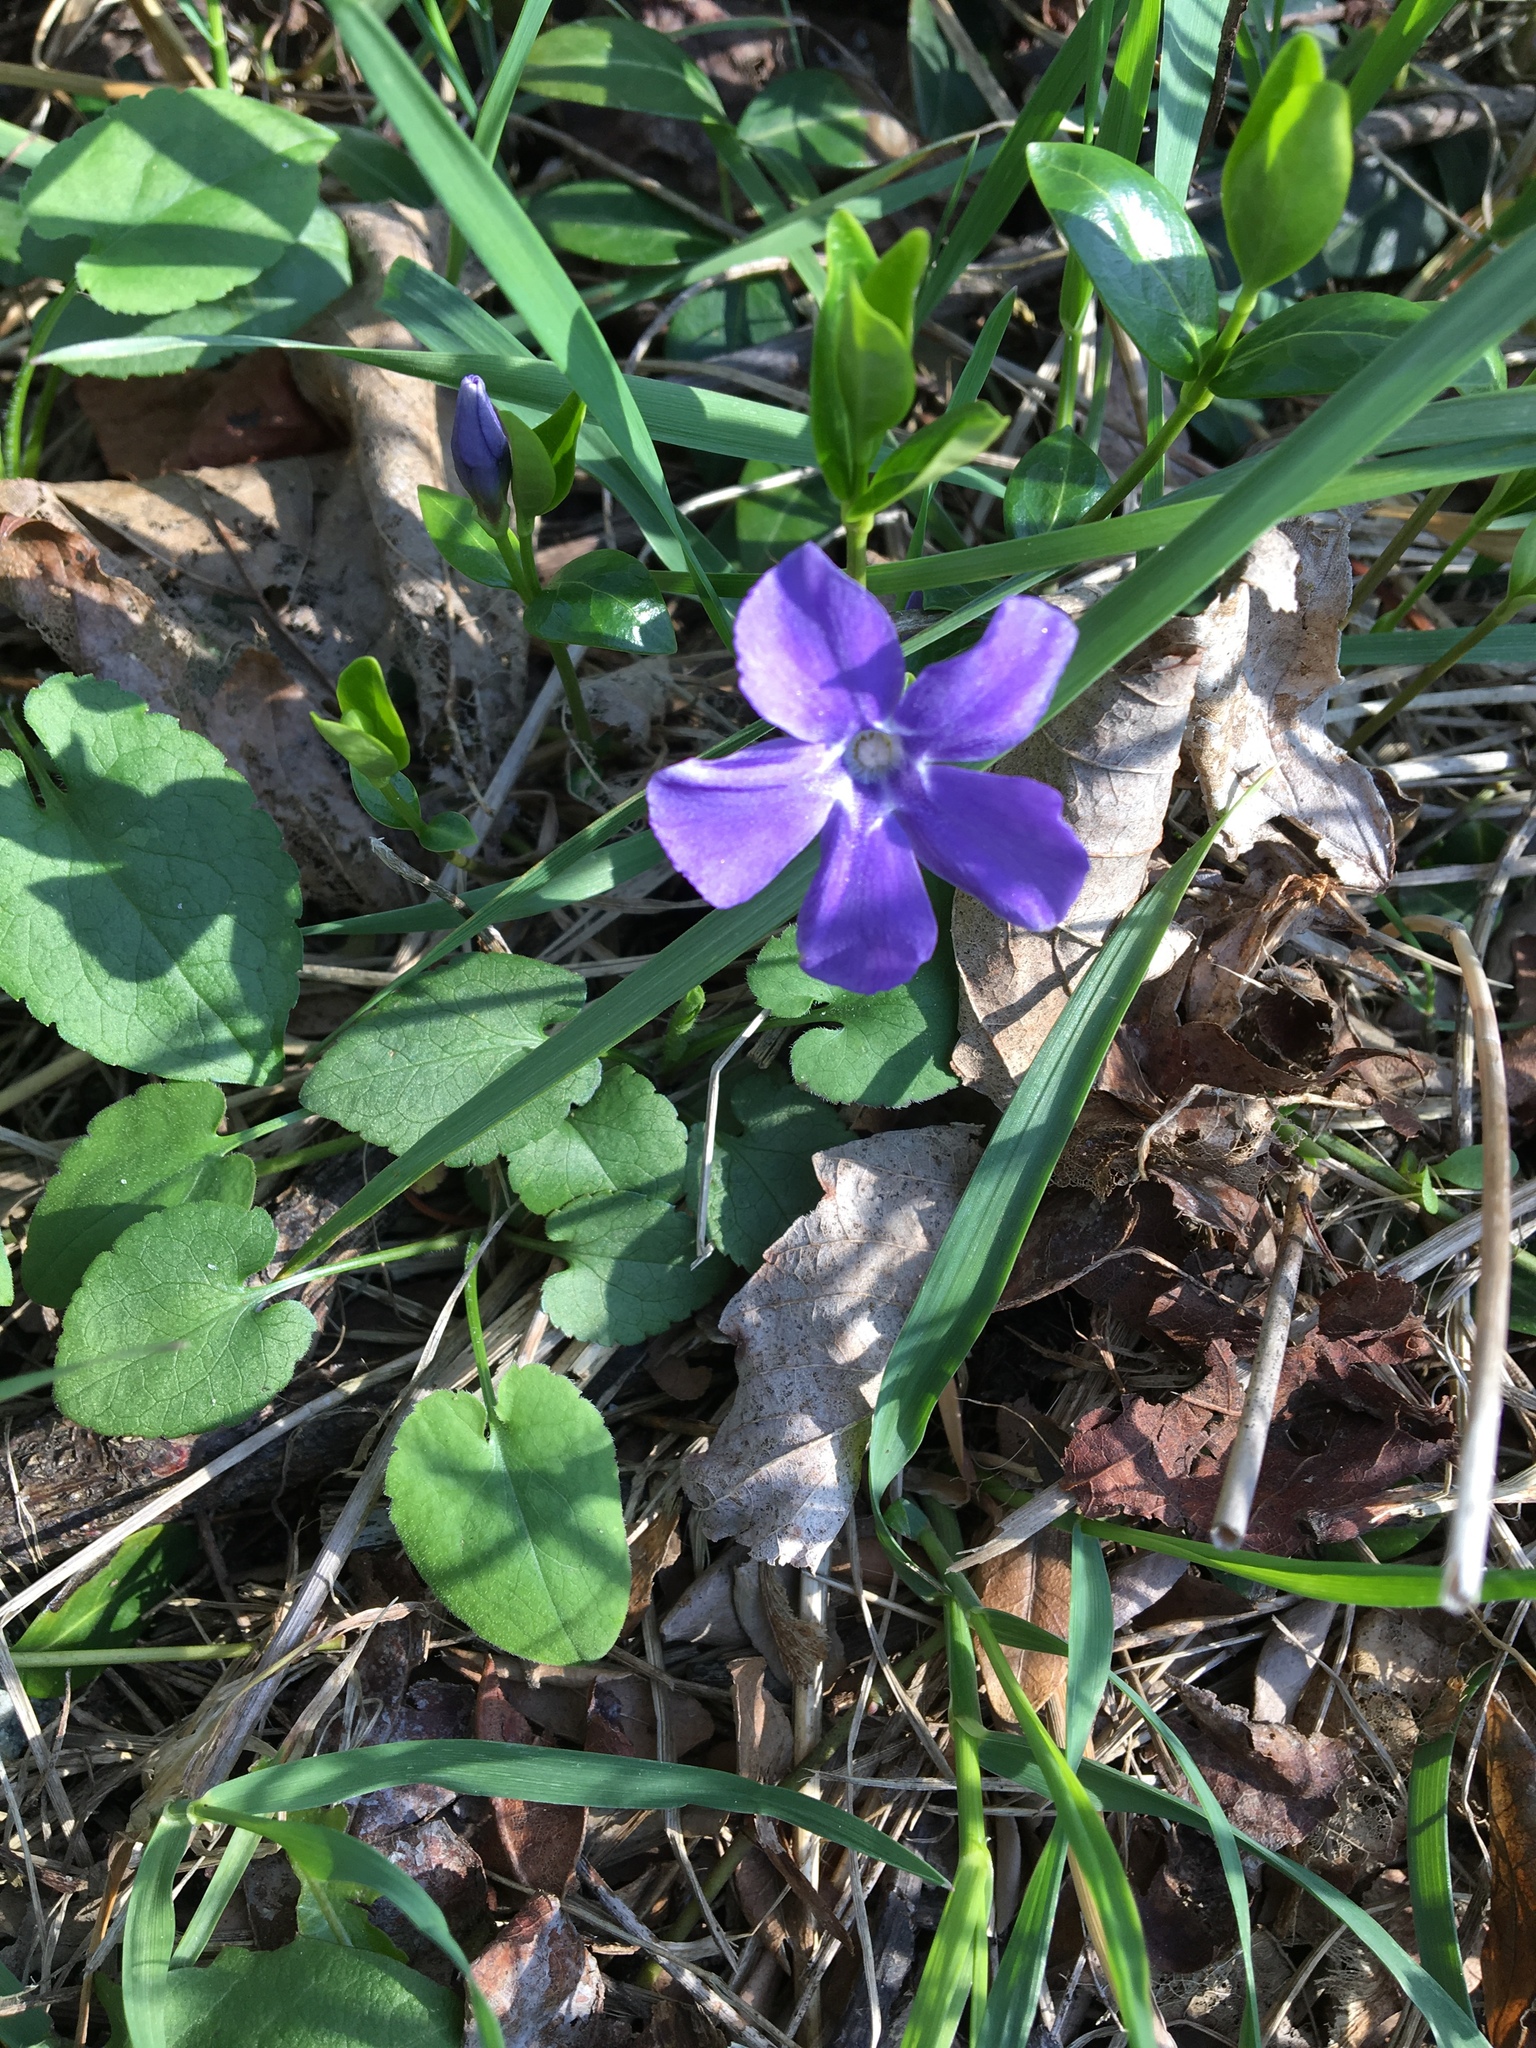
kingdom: Plantae
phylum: Tracheophyta
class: Magnoliopsida
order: Gentianales
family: Apocynaceae
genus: Vinca
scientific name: Vinca minor
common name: Lesser periwinkle
